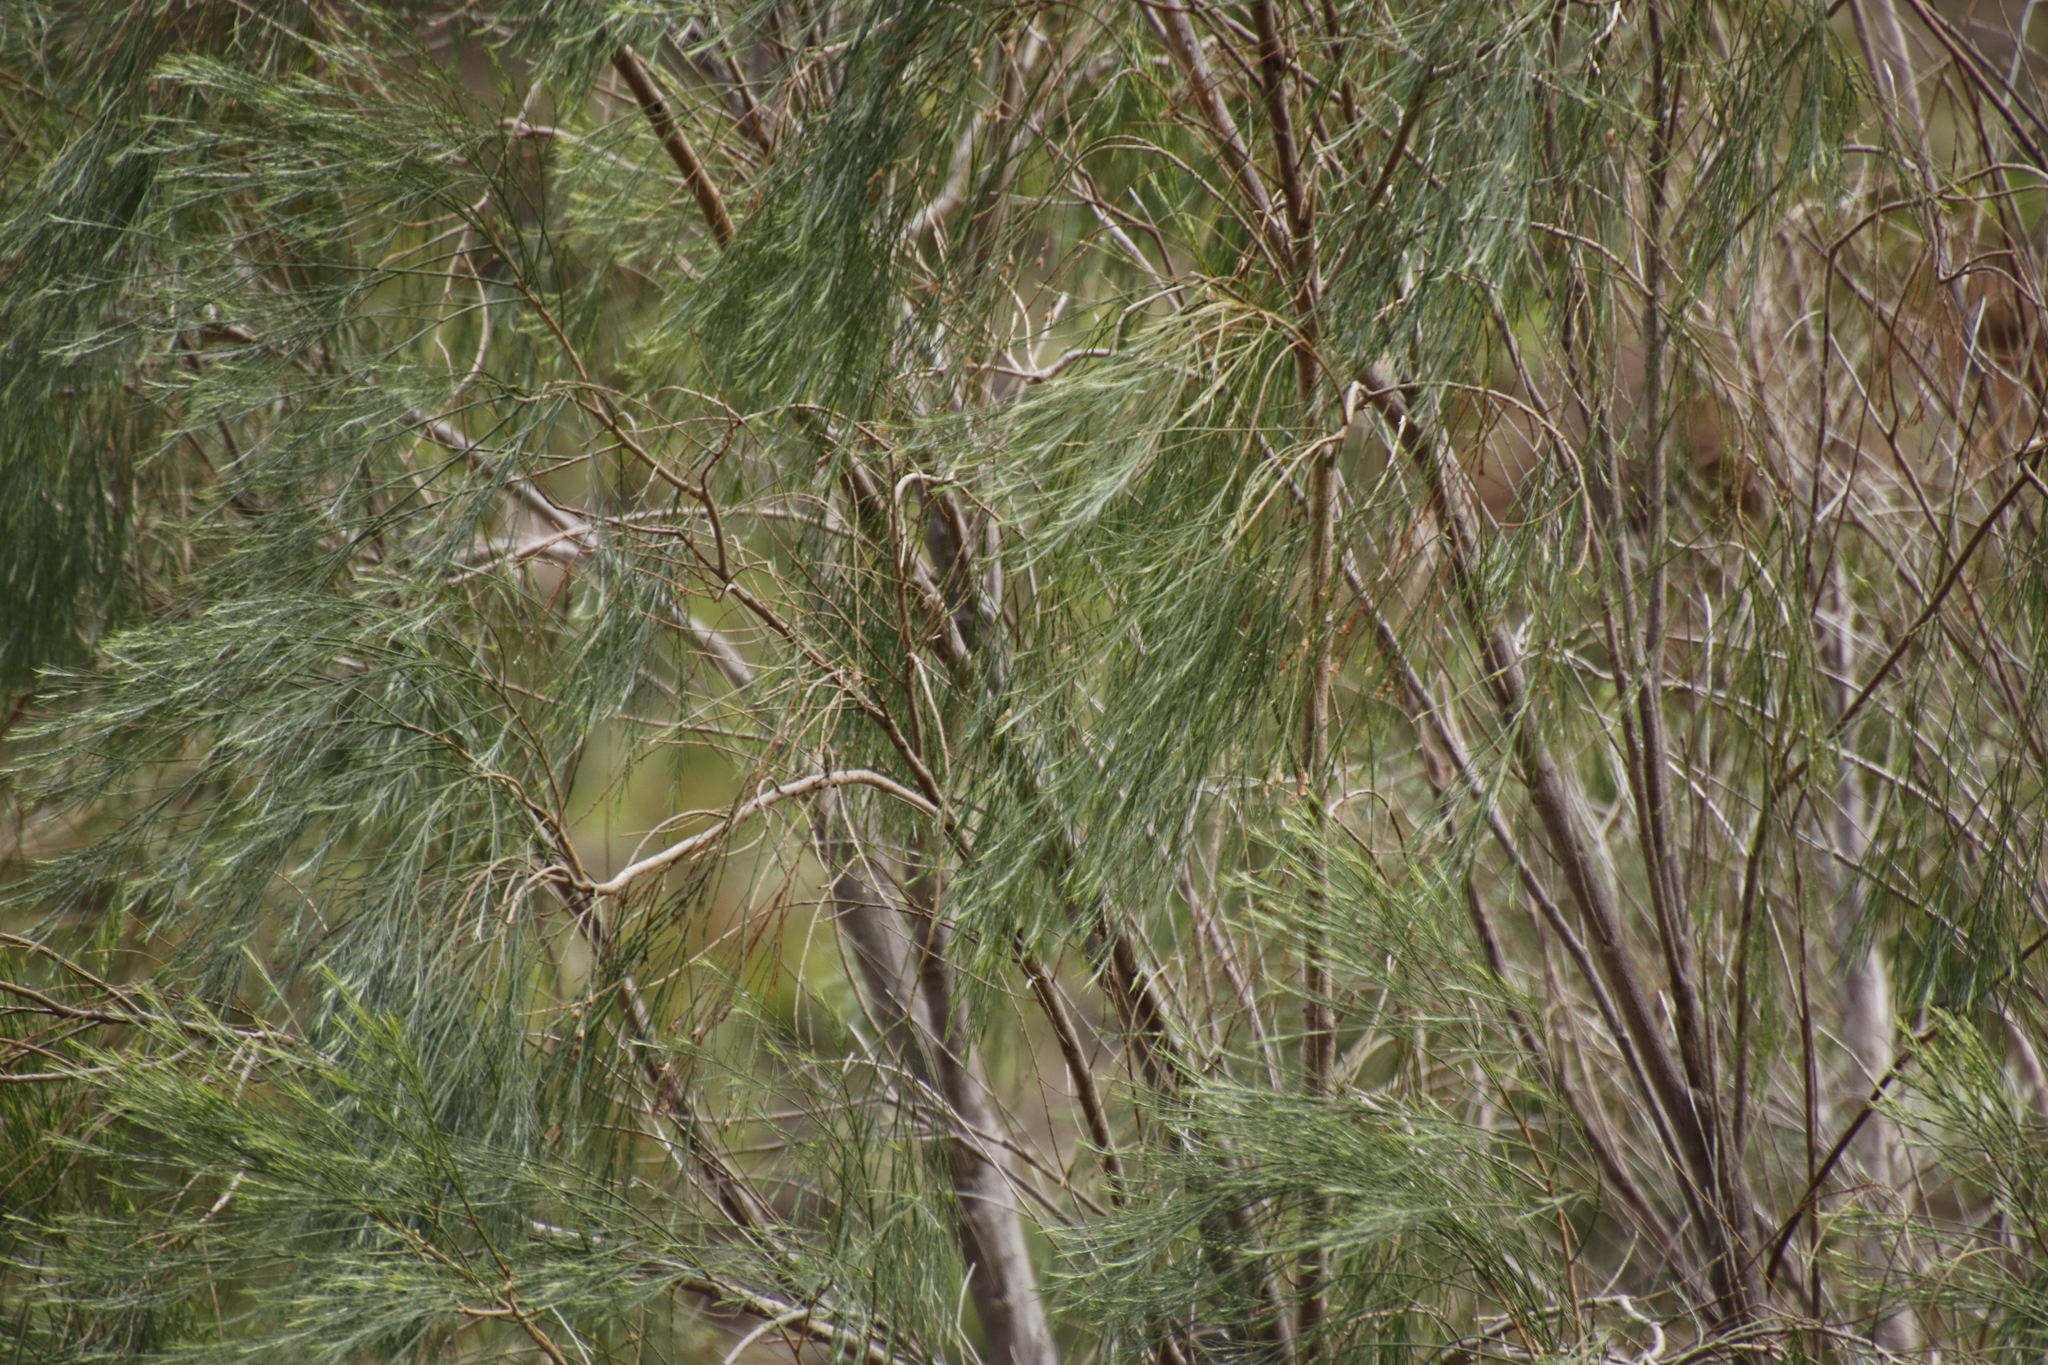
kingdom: Plantae
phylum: Tracheophyta
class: Magnoliopsida
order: Fabales
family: Fabaceae
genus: Psoralea
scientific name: Psoralea gigantea
